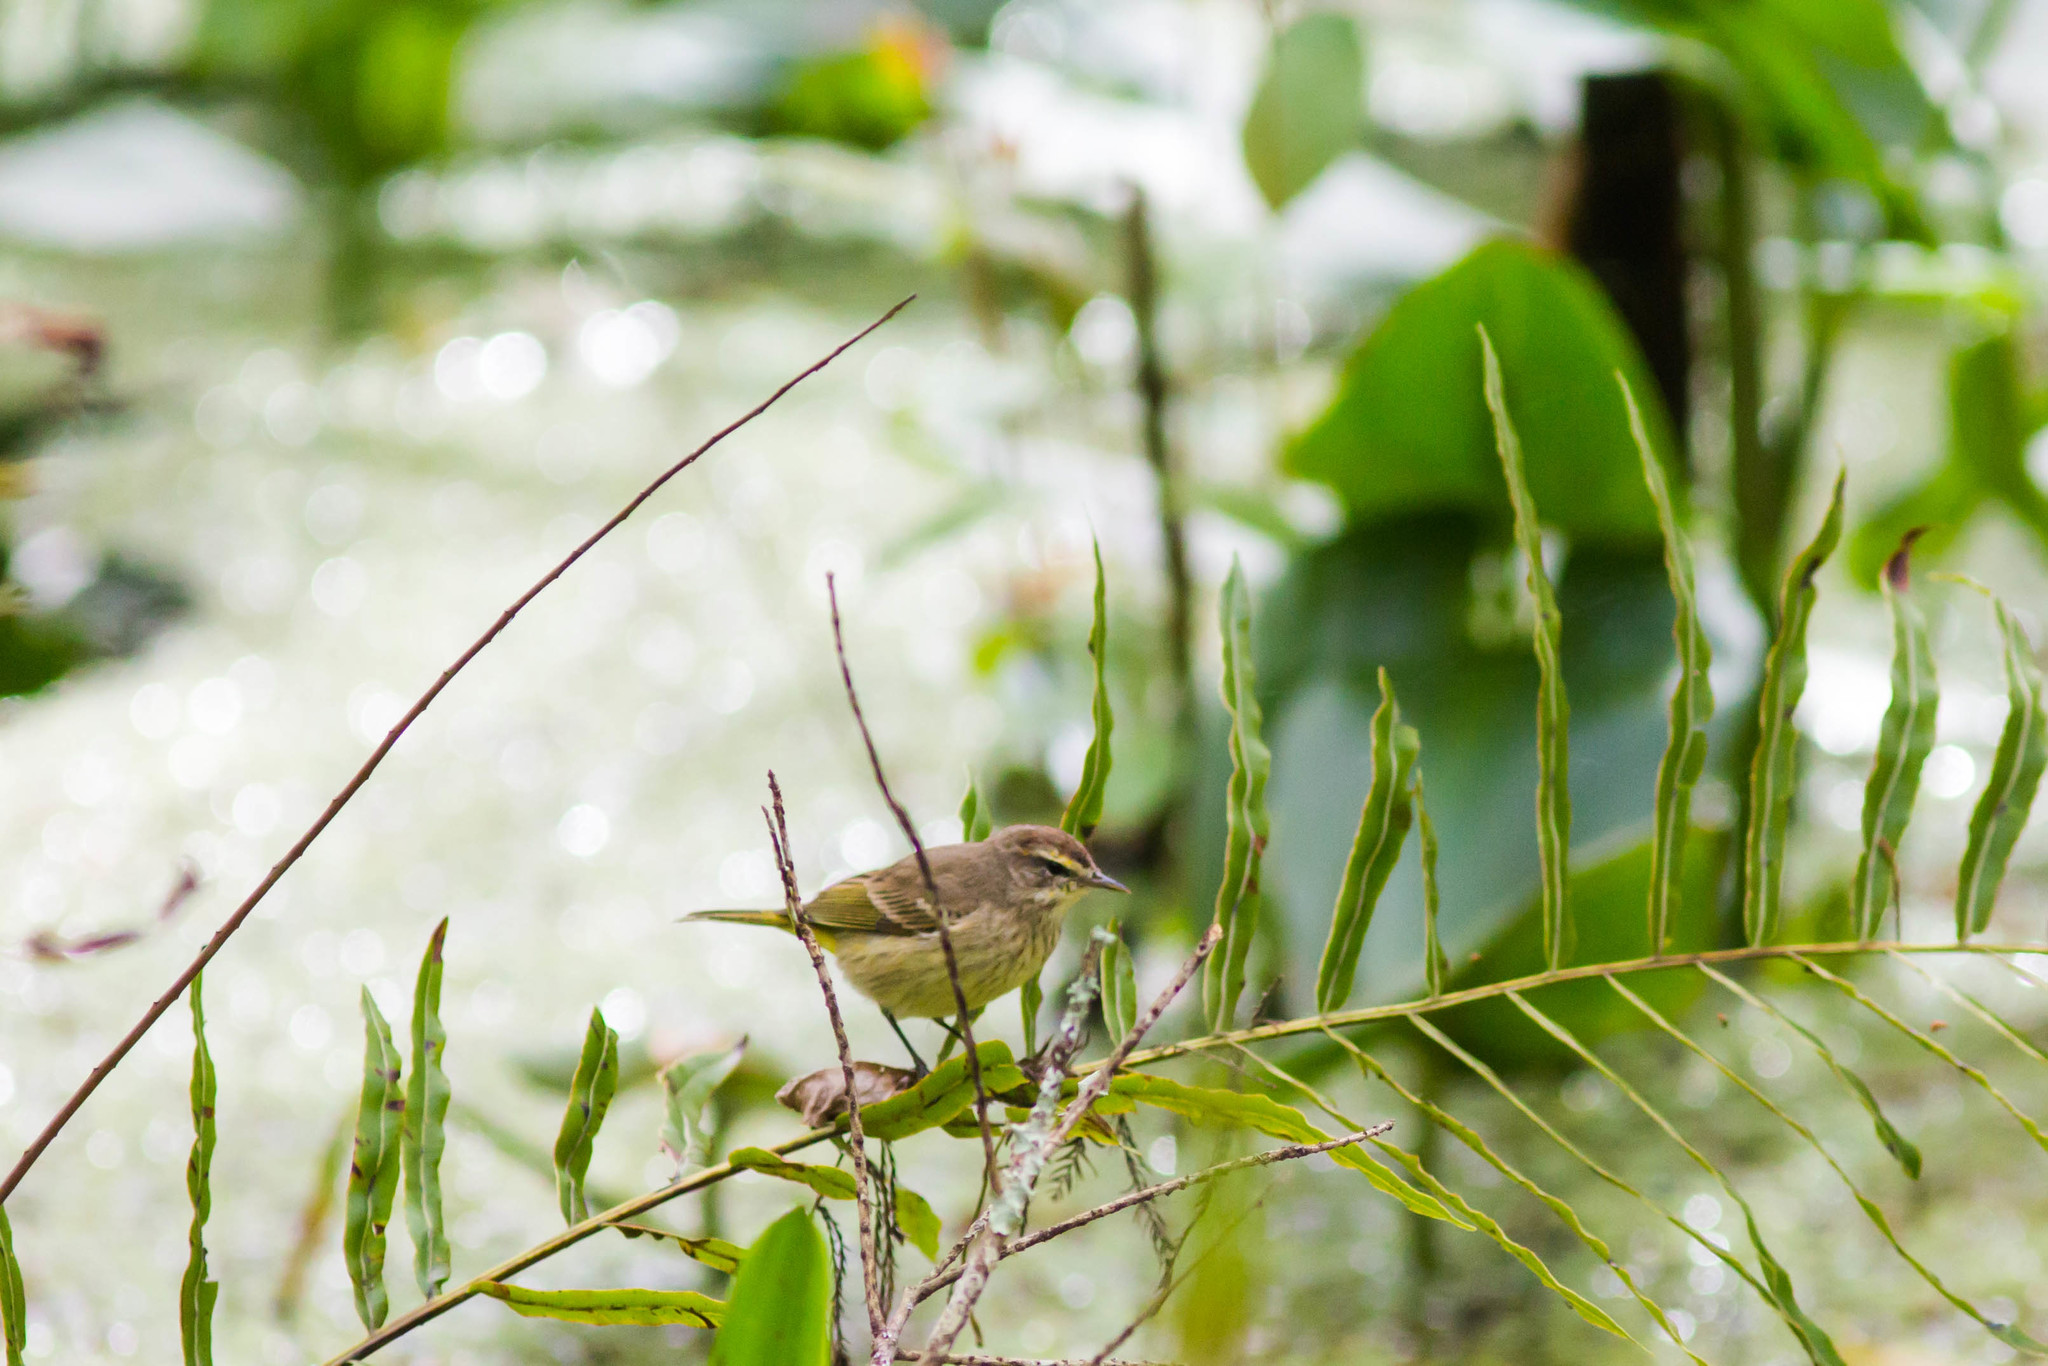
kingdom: Animalia
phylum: Chordata
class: Aves
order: Passeriformes
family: Parulidae
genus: Setophaga
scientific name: Setophaga palmarum
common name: Palm warbler
